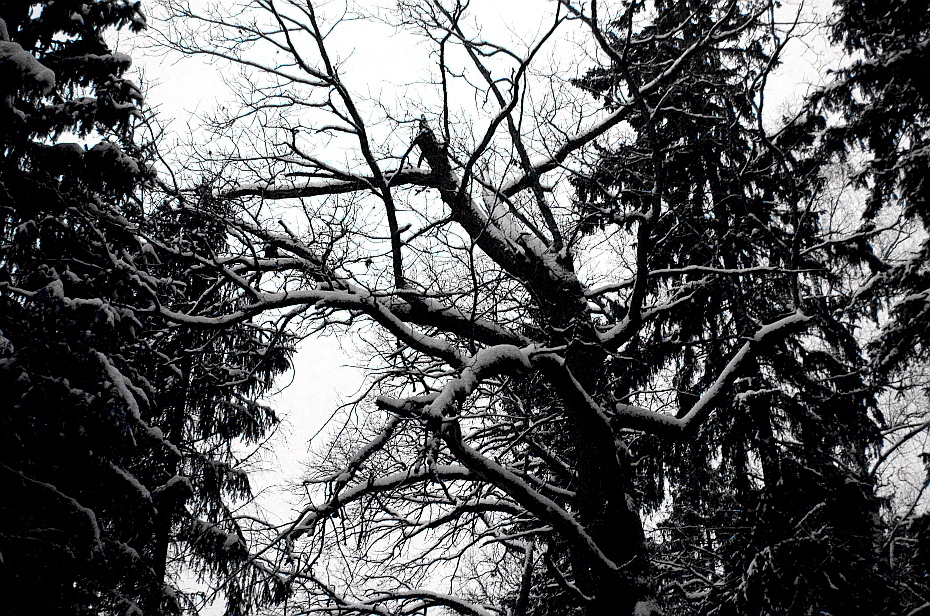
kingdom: Plantae
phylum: Tracheophyta
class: Magnoliopsida
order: Fagales
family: Fagaceae
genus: Quercus
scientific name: Quercus robur
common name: Pedunculate oak
